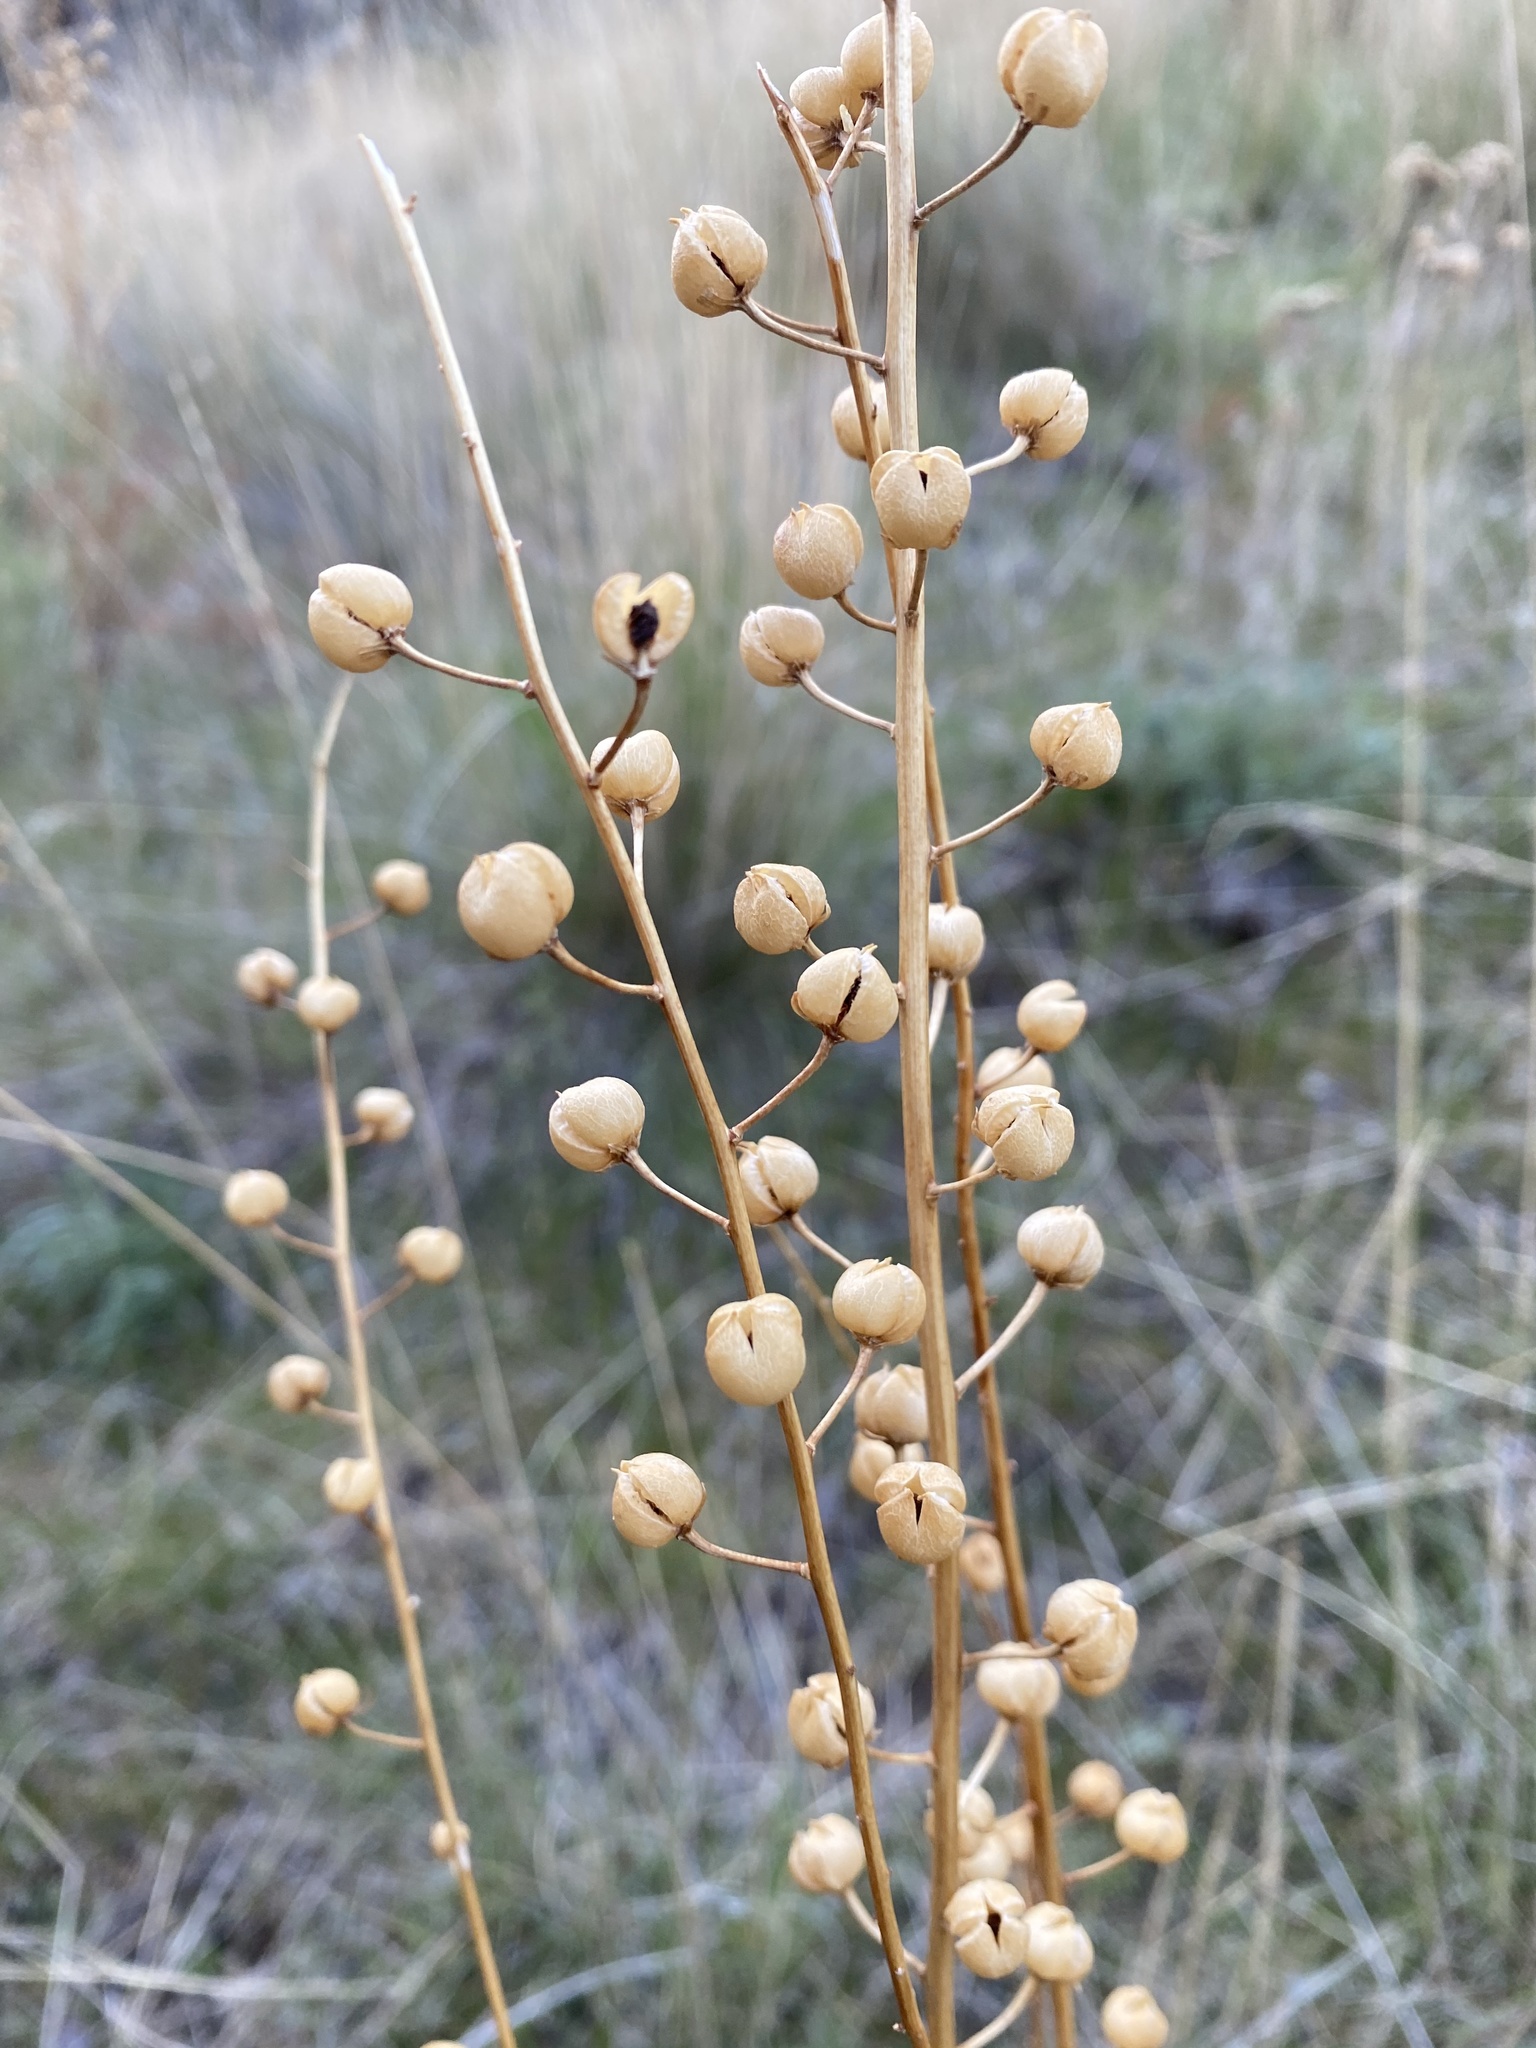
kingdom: Plantae
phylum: Tracheophyta
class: Magnoliopsida
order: Lamiales
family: Scrophulariaceae
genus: Verbascum
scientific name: Verbascum blattaria
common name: Moth mullein
